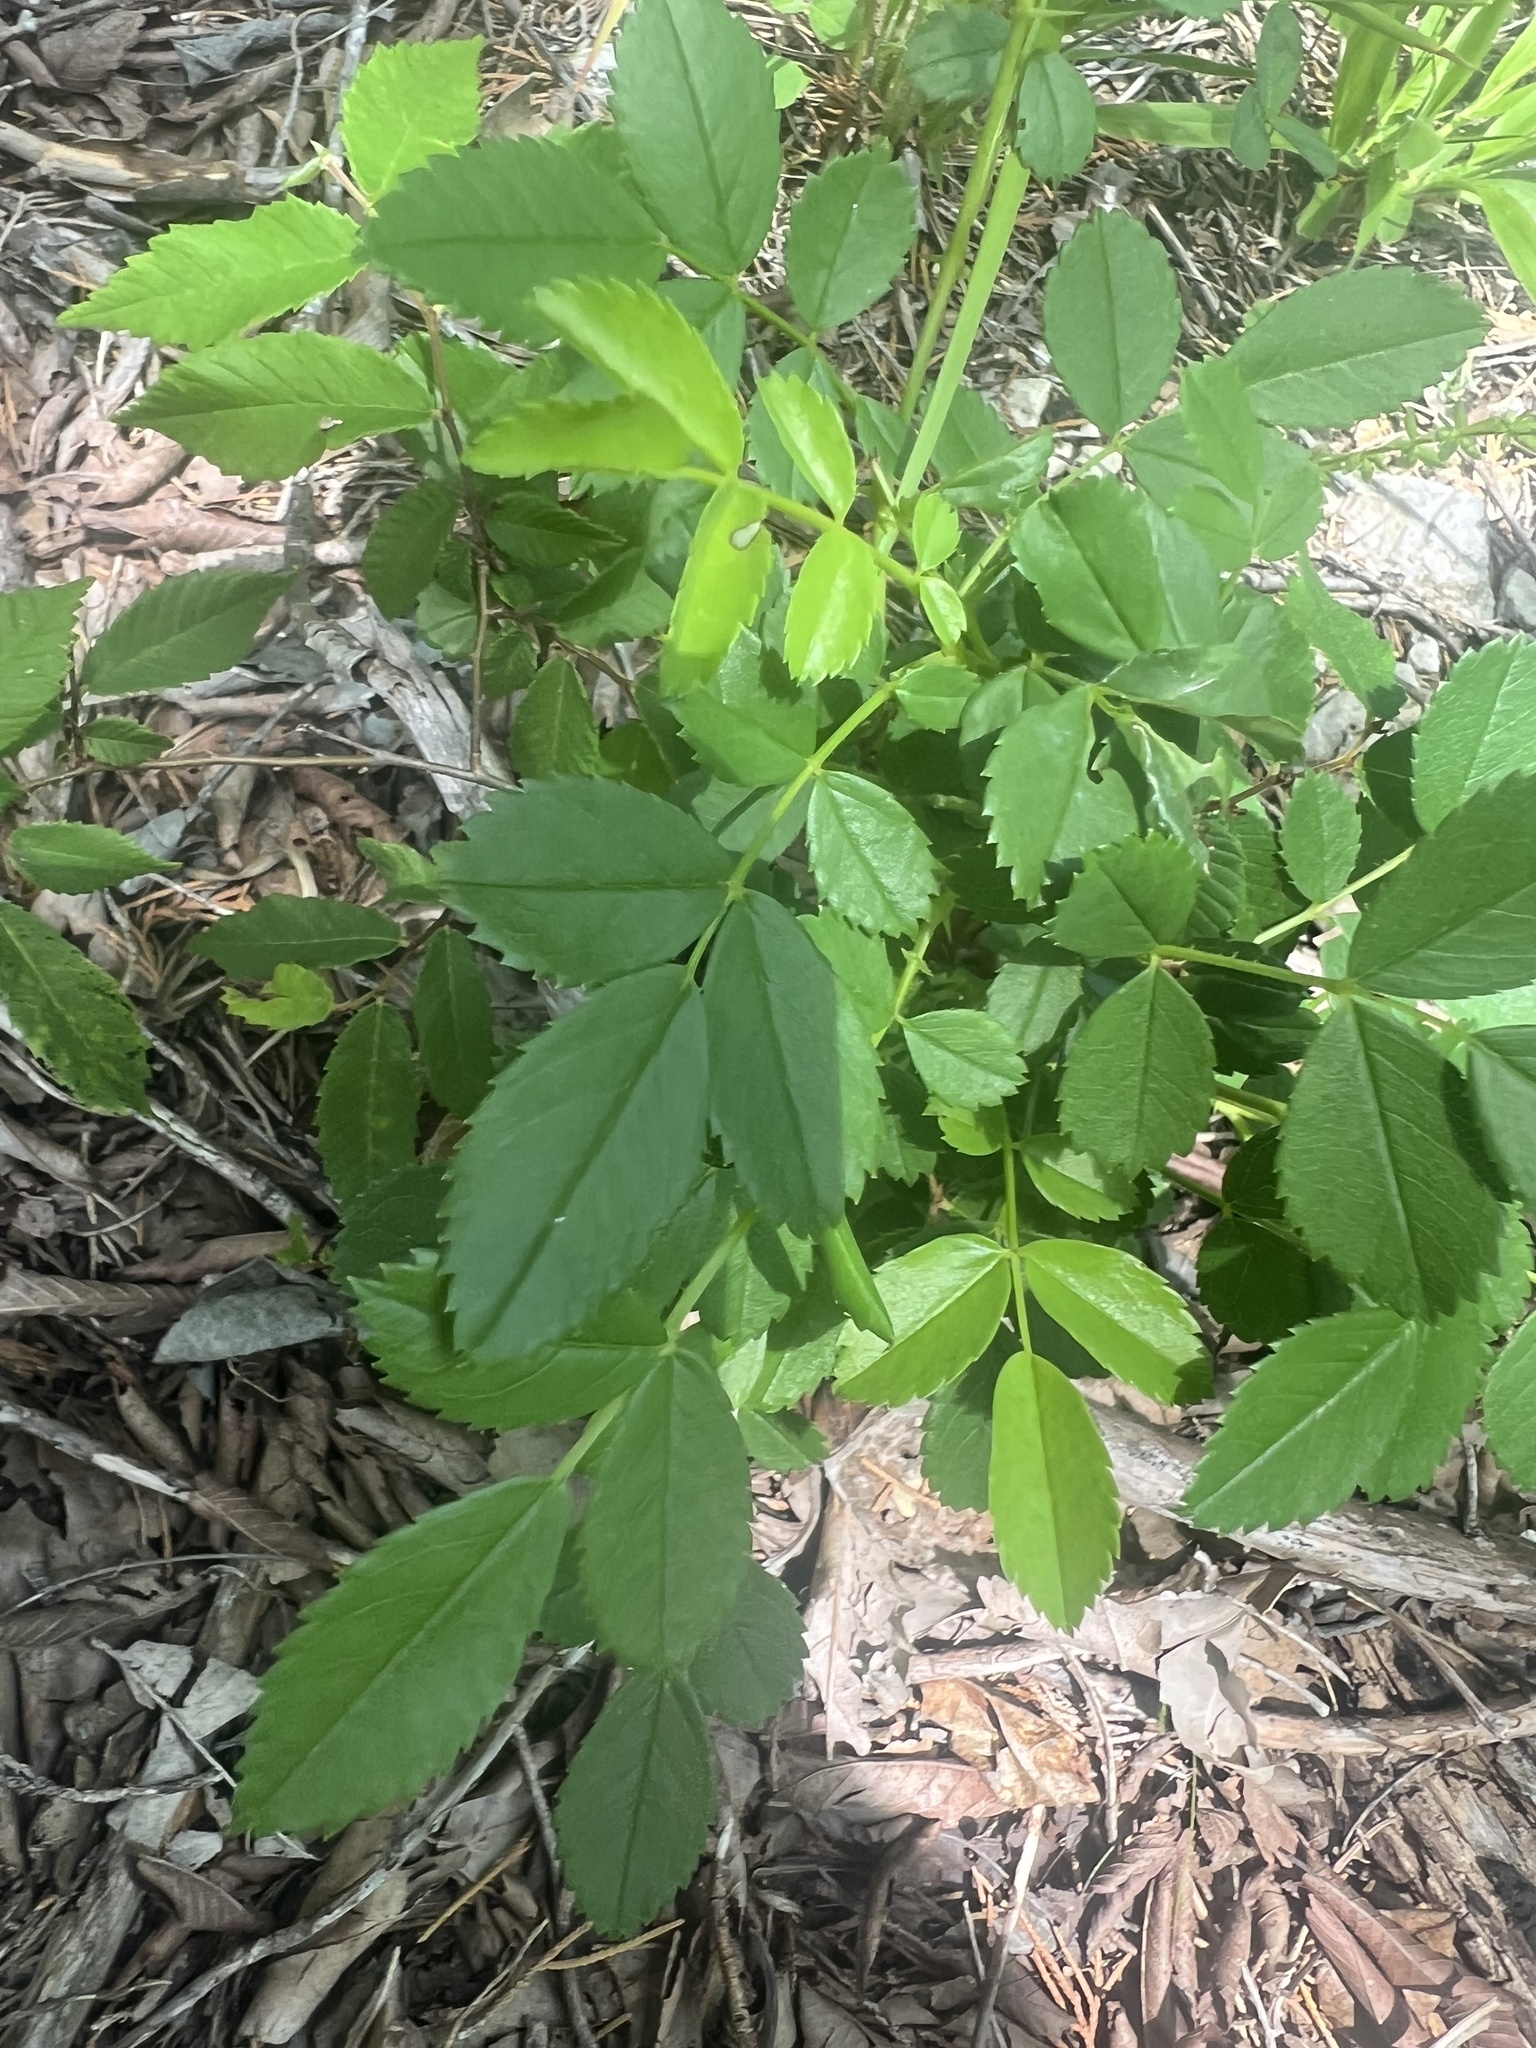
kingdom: Plantae
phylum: Tracheophyta
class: Magnoliopsida
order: Rosales
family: Rosaceae
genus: Rosa
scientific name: Rosa carolina
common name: Pasture rose
